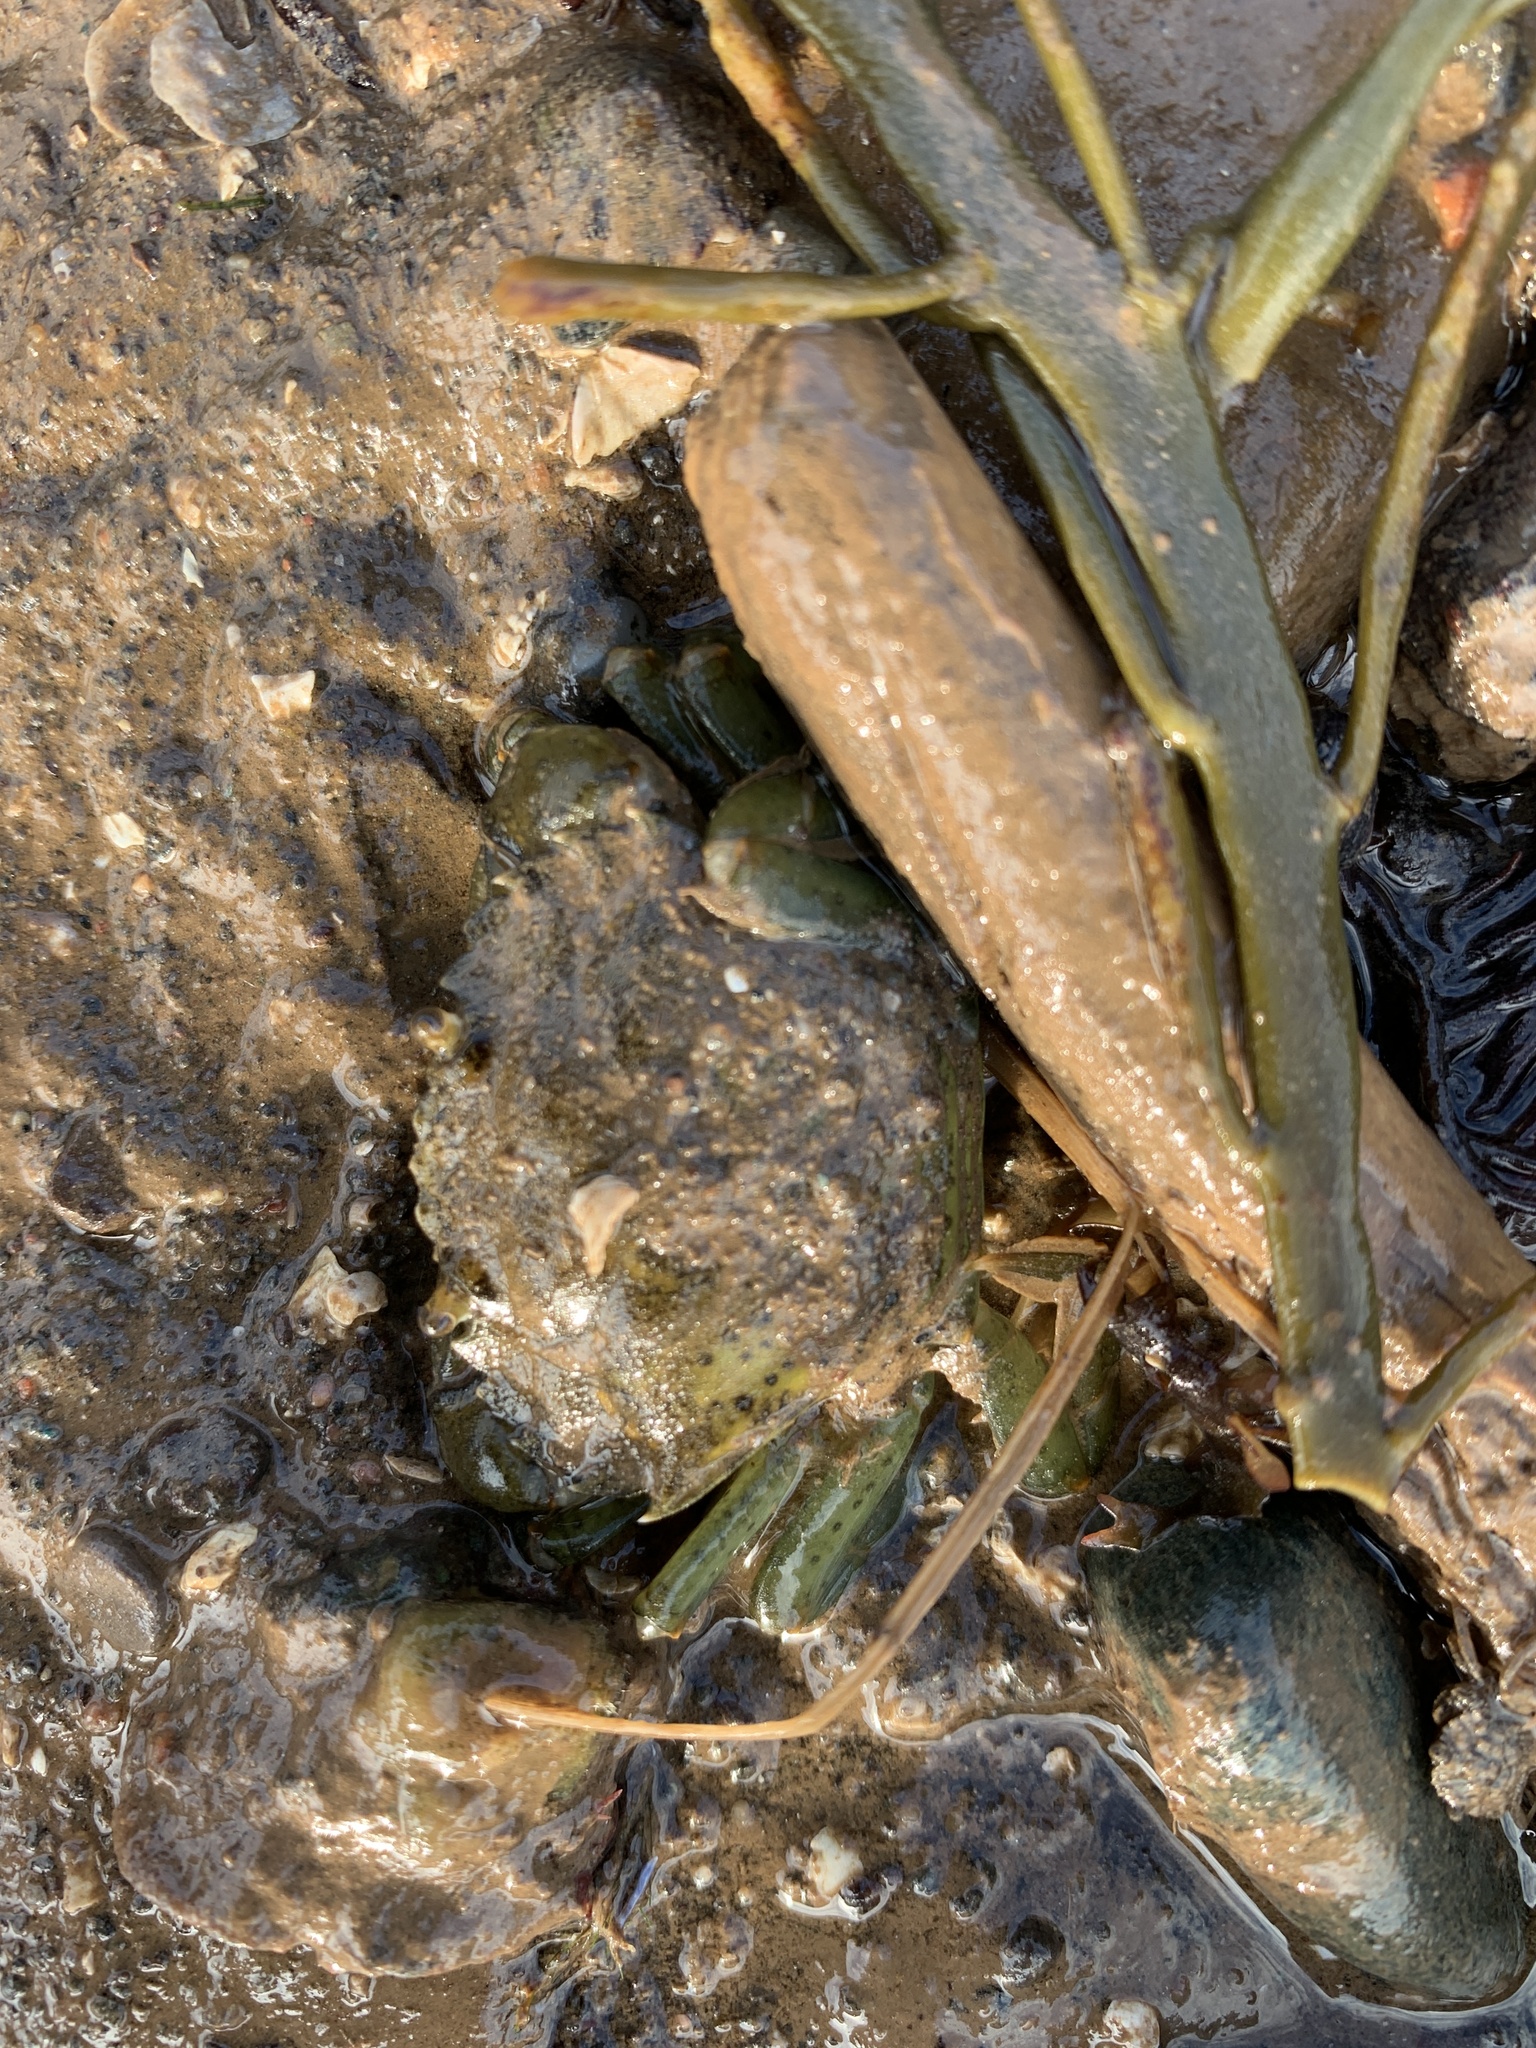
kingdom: Animalia
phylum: Arthropoda
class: Malacostraca
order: Decapoda
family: Carcinidae
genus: Carcinus
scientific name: Carcinus maenas
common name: European green crab
